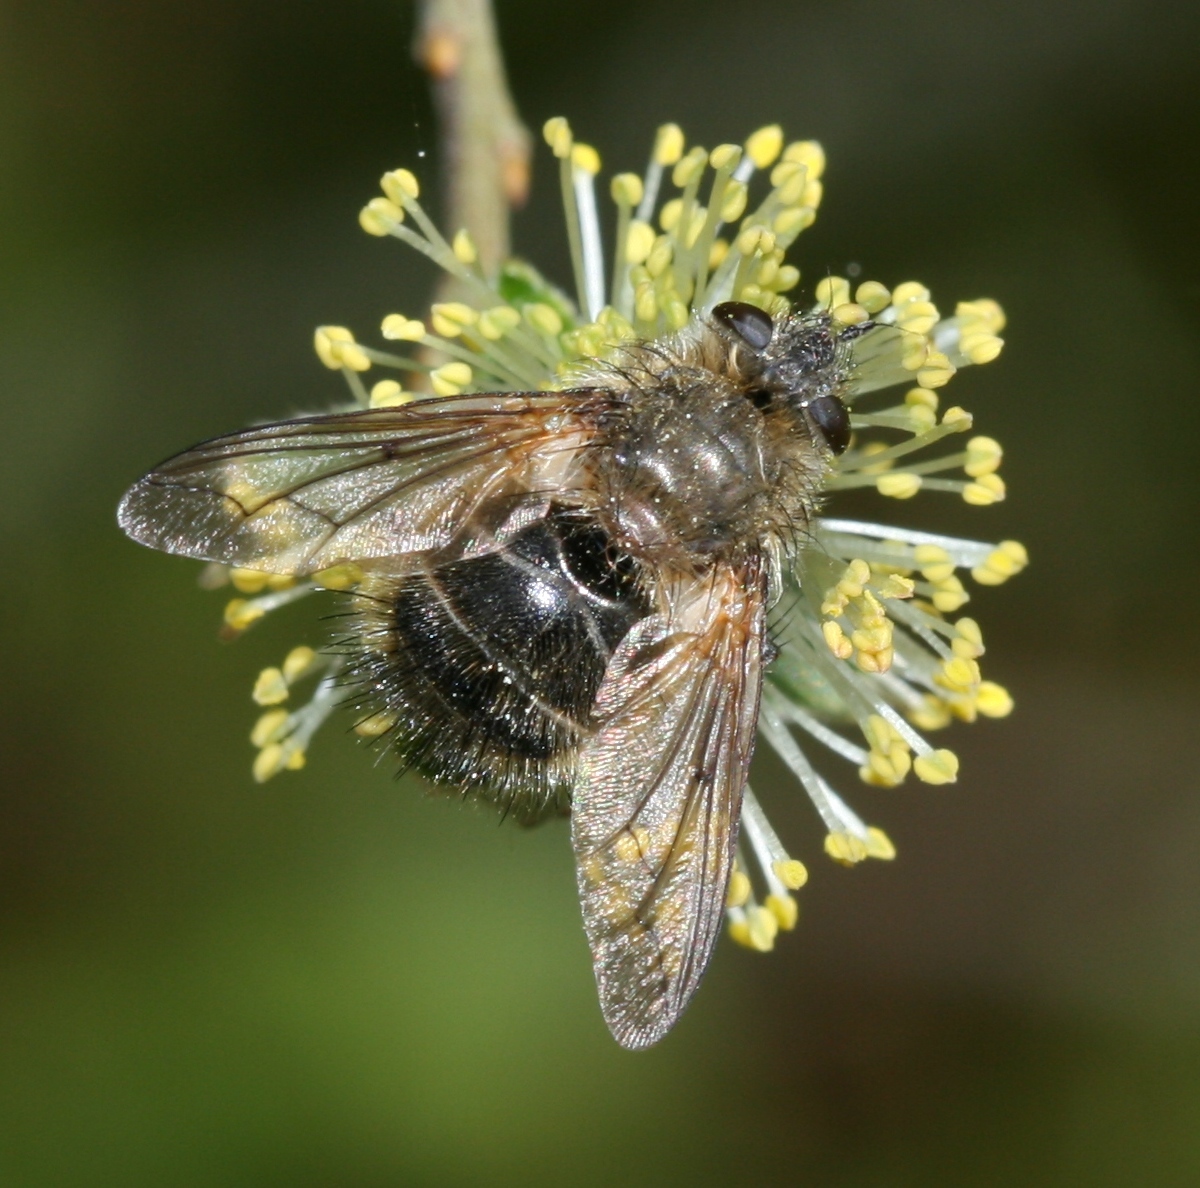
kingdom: Animalia
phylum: Arthropoda
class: Insecta
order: Diptera
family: Tachinidae
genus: Tachina
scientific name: Tachina ursina
